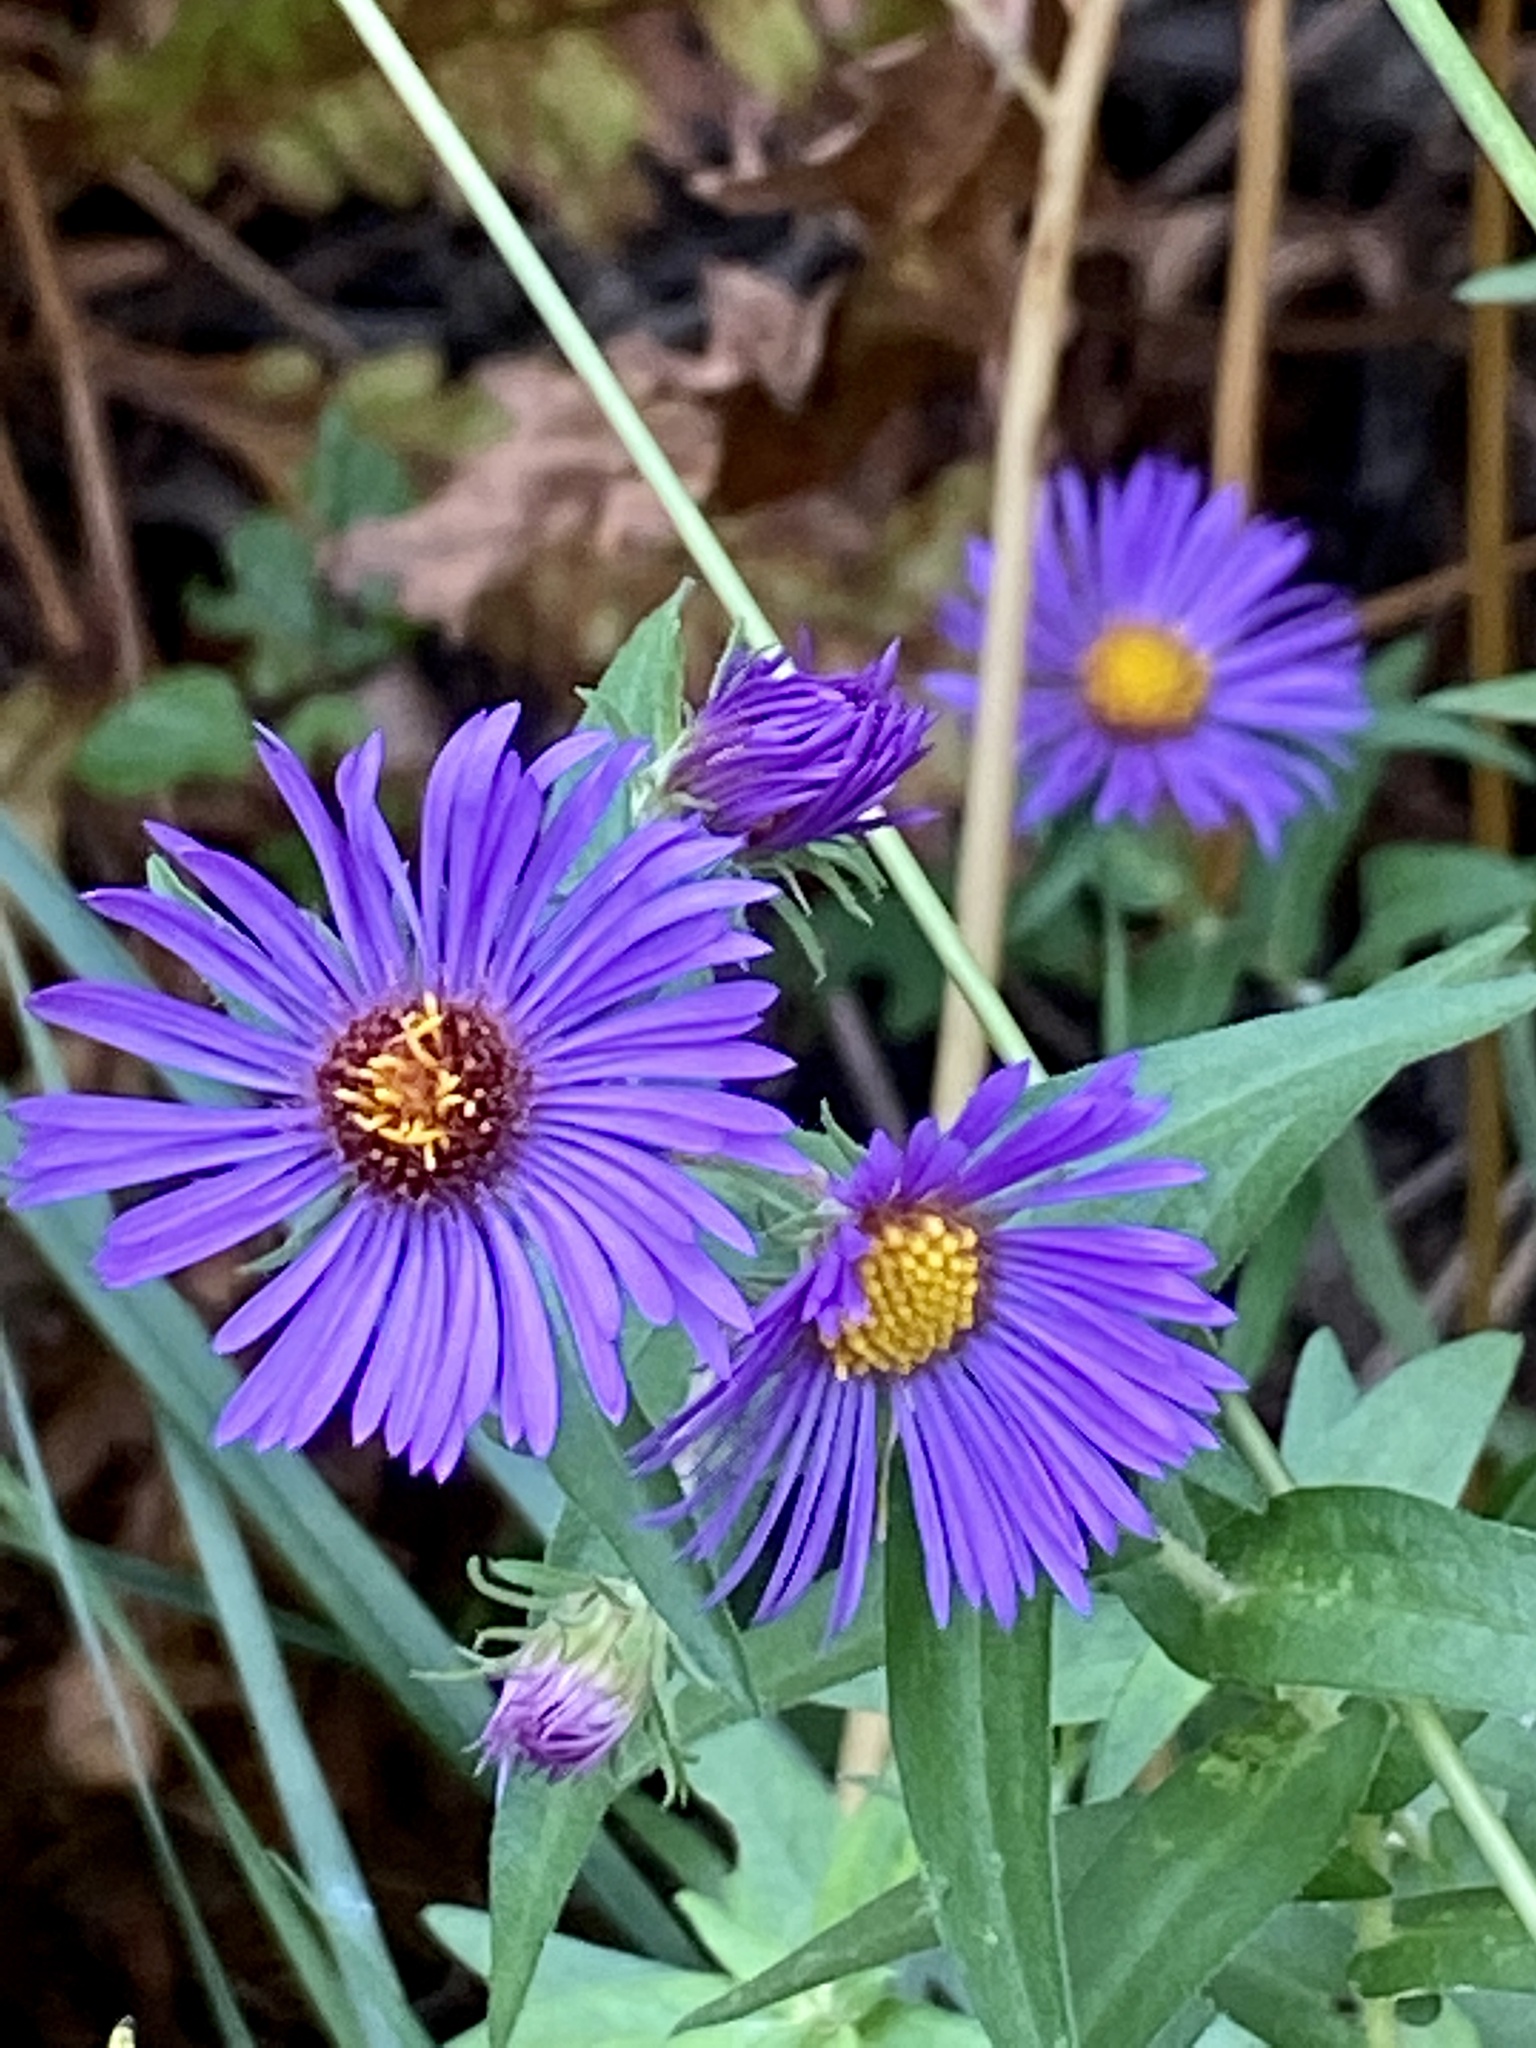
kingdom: Plantae
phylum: Tracheophyta
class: Magnoliopsida
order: Asterales
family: Asteraceae
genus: Symphyotrichum
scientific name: Symphyotrichum novae-angliae
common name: Michaelmas daisy
